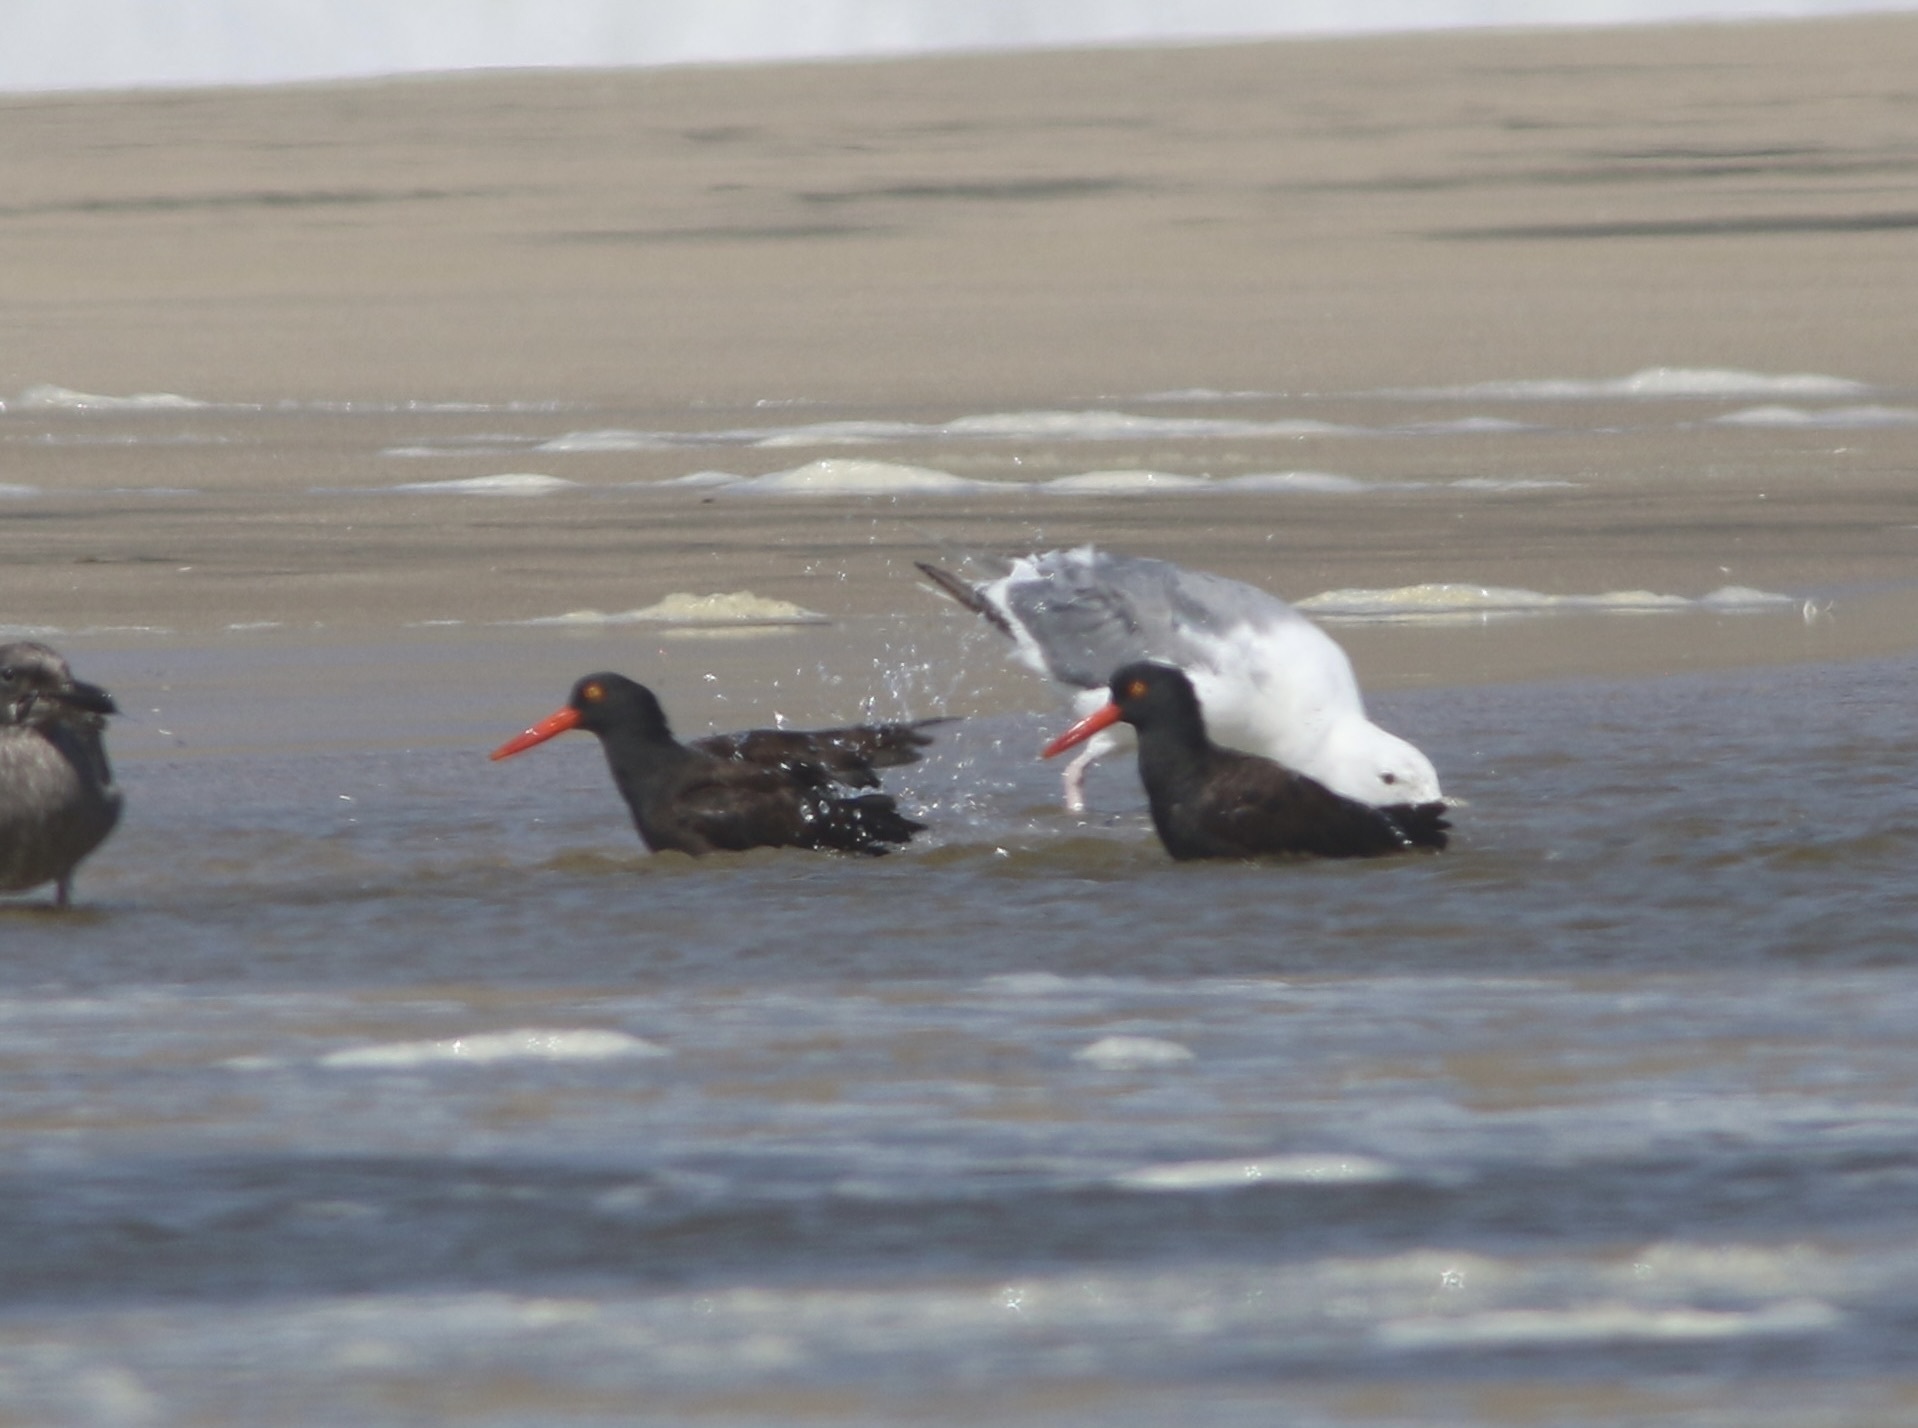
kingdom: Animalia
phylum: Chordata
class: Aves
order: Charadriiformes
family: Haematopodidae
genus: Haematopus
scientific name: Haematopus bachmani
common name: Black oystercatcher
